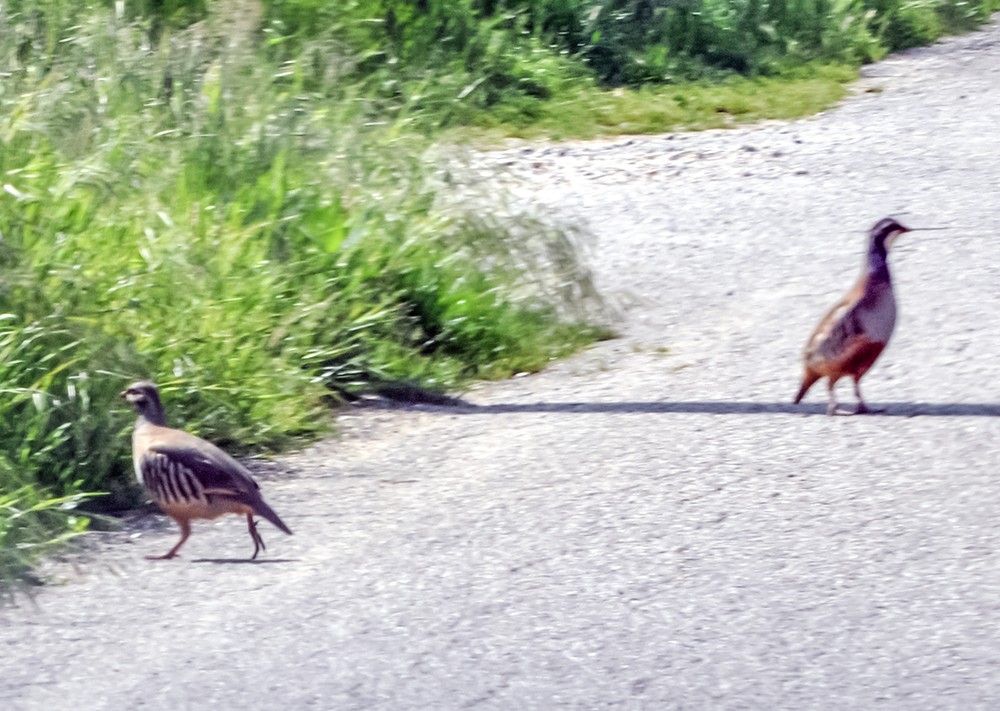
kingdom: Animalia
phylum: Chordata
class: Aves
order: Galliformes
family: Phasianidae
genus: Alectoris
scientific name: Alectoris rufa
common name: Red-legged partridge
